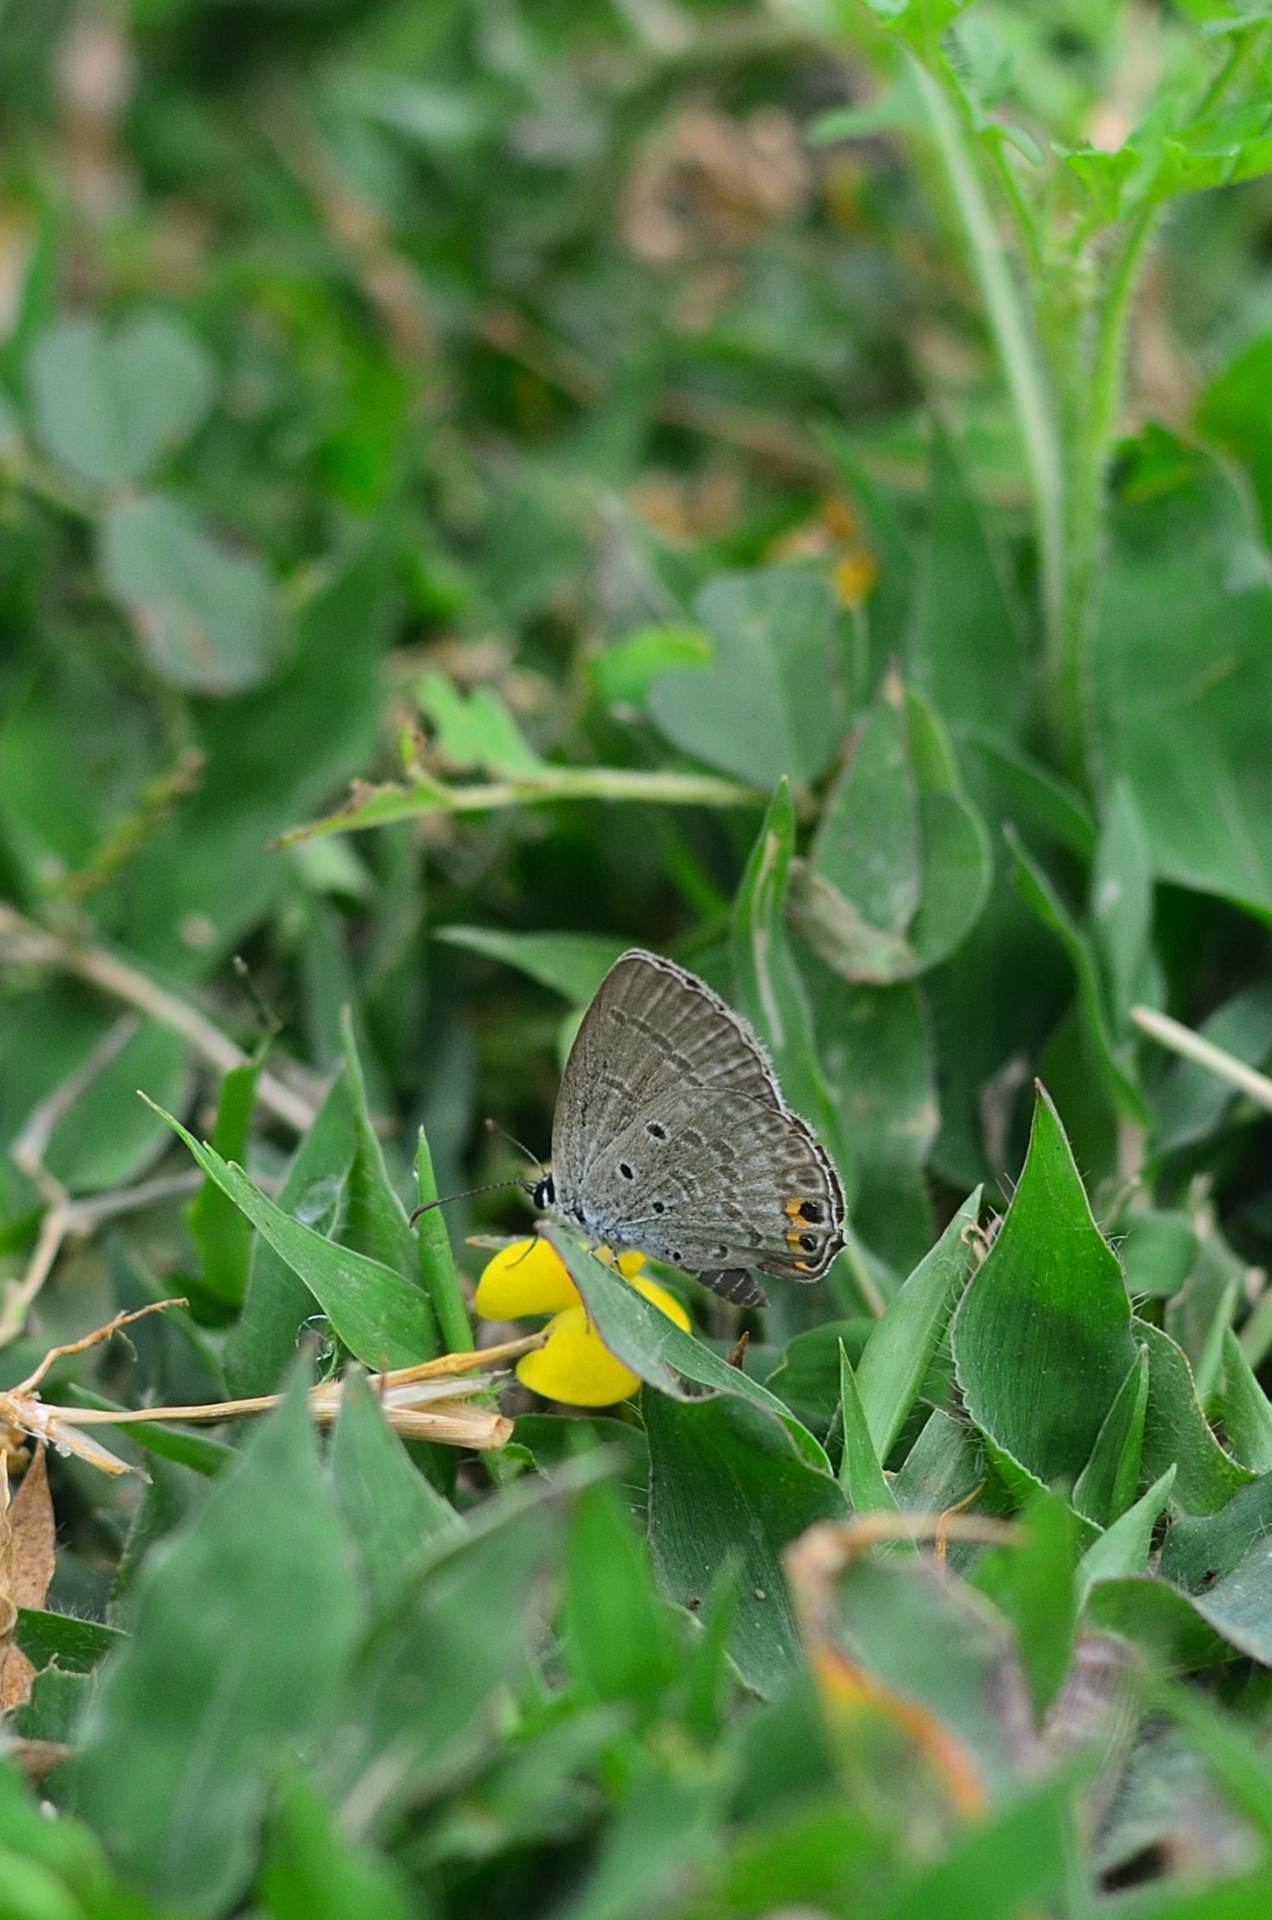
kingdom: Animalia
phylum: Arthropoda
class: Insecta
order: Lepidoptera
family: Lycaenidae
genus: Euchrysops
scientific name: Euchrysops cnejus
